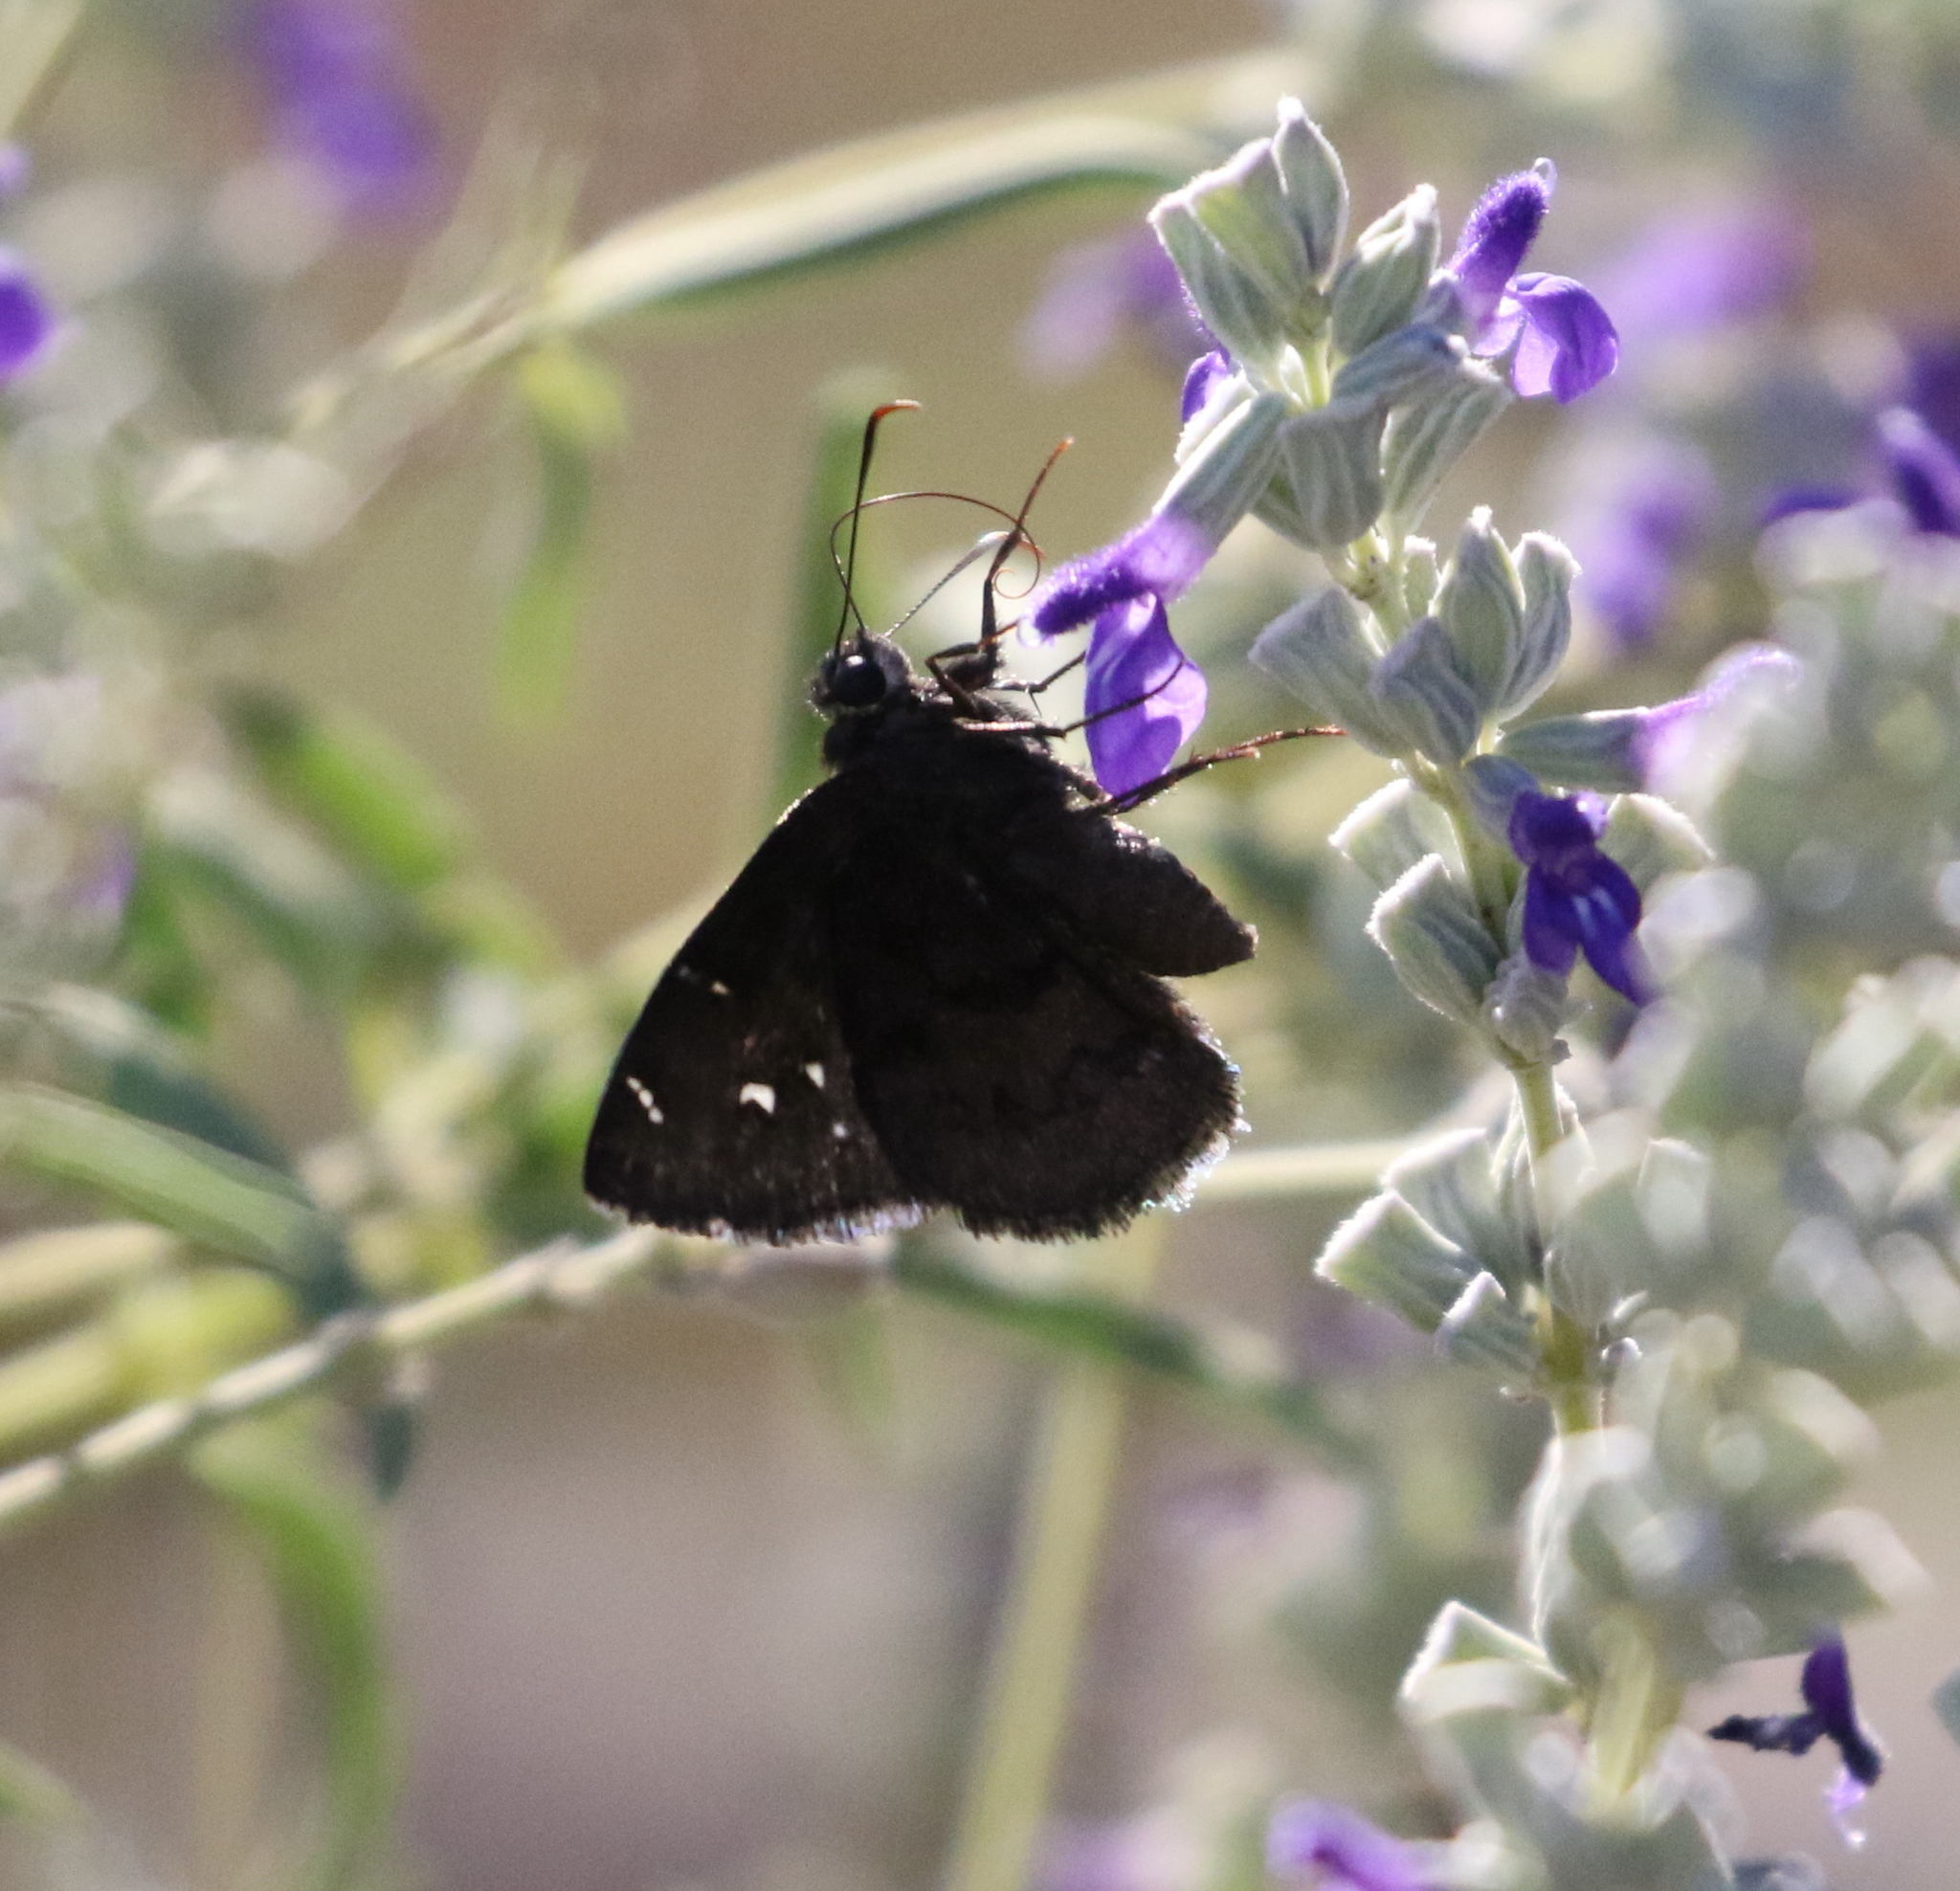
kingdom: Animalia
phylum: Arthropoda
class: Insecta
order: Lepidoptera
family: Hesperiidae
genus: Thorybes
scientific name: Thorybes pylades
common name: Northern cloudywing
